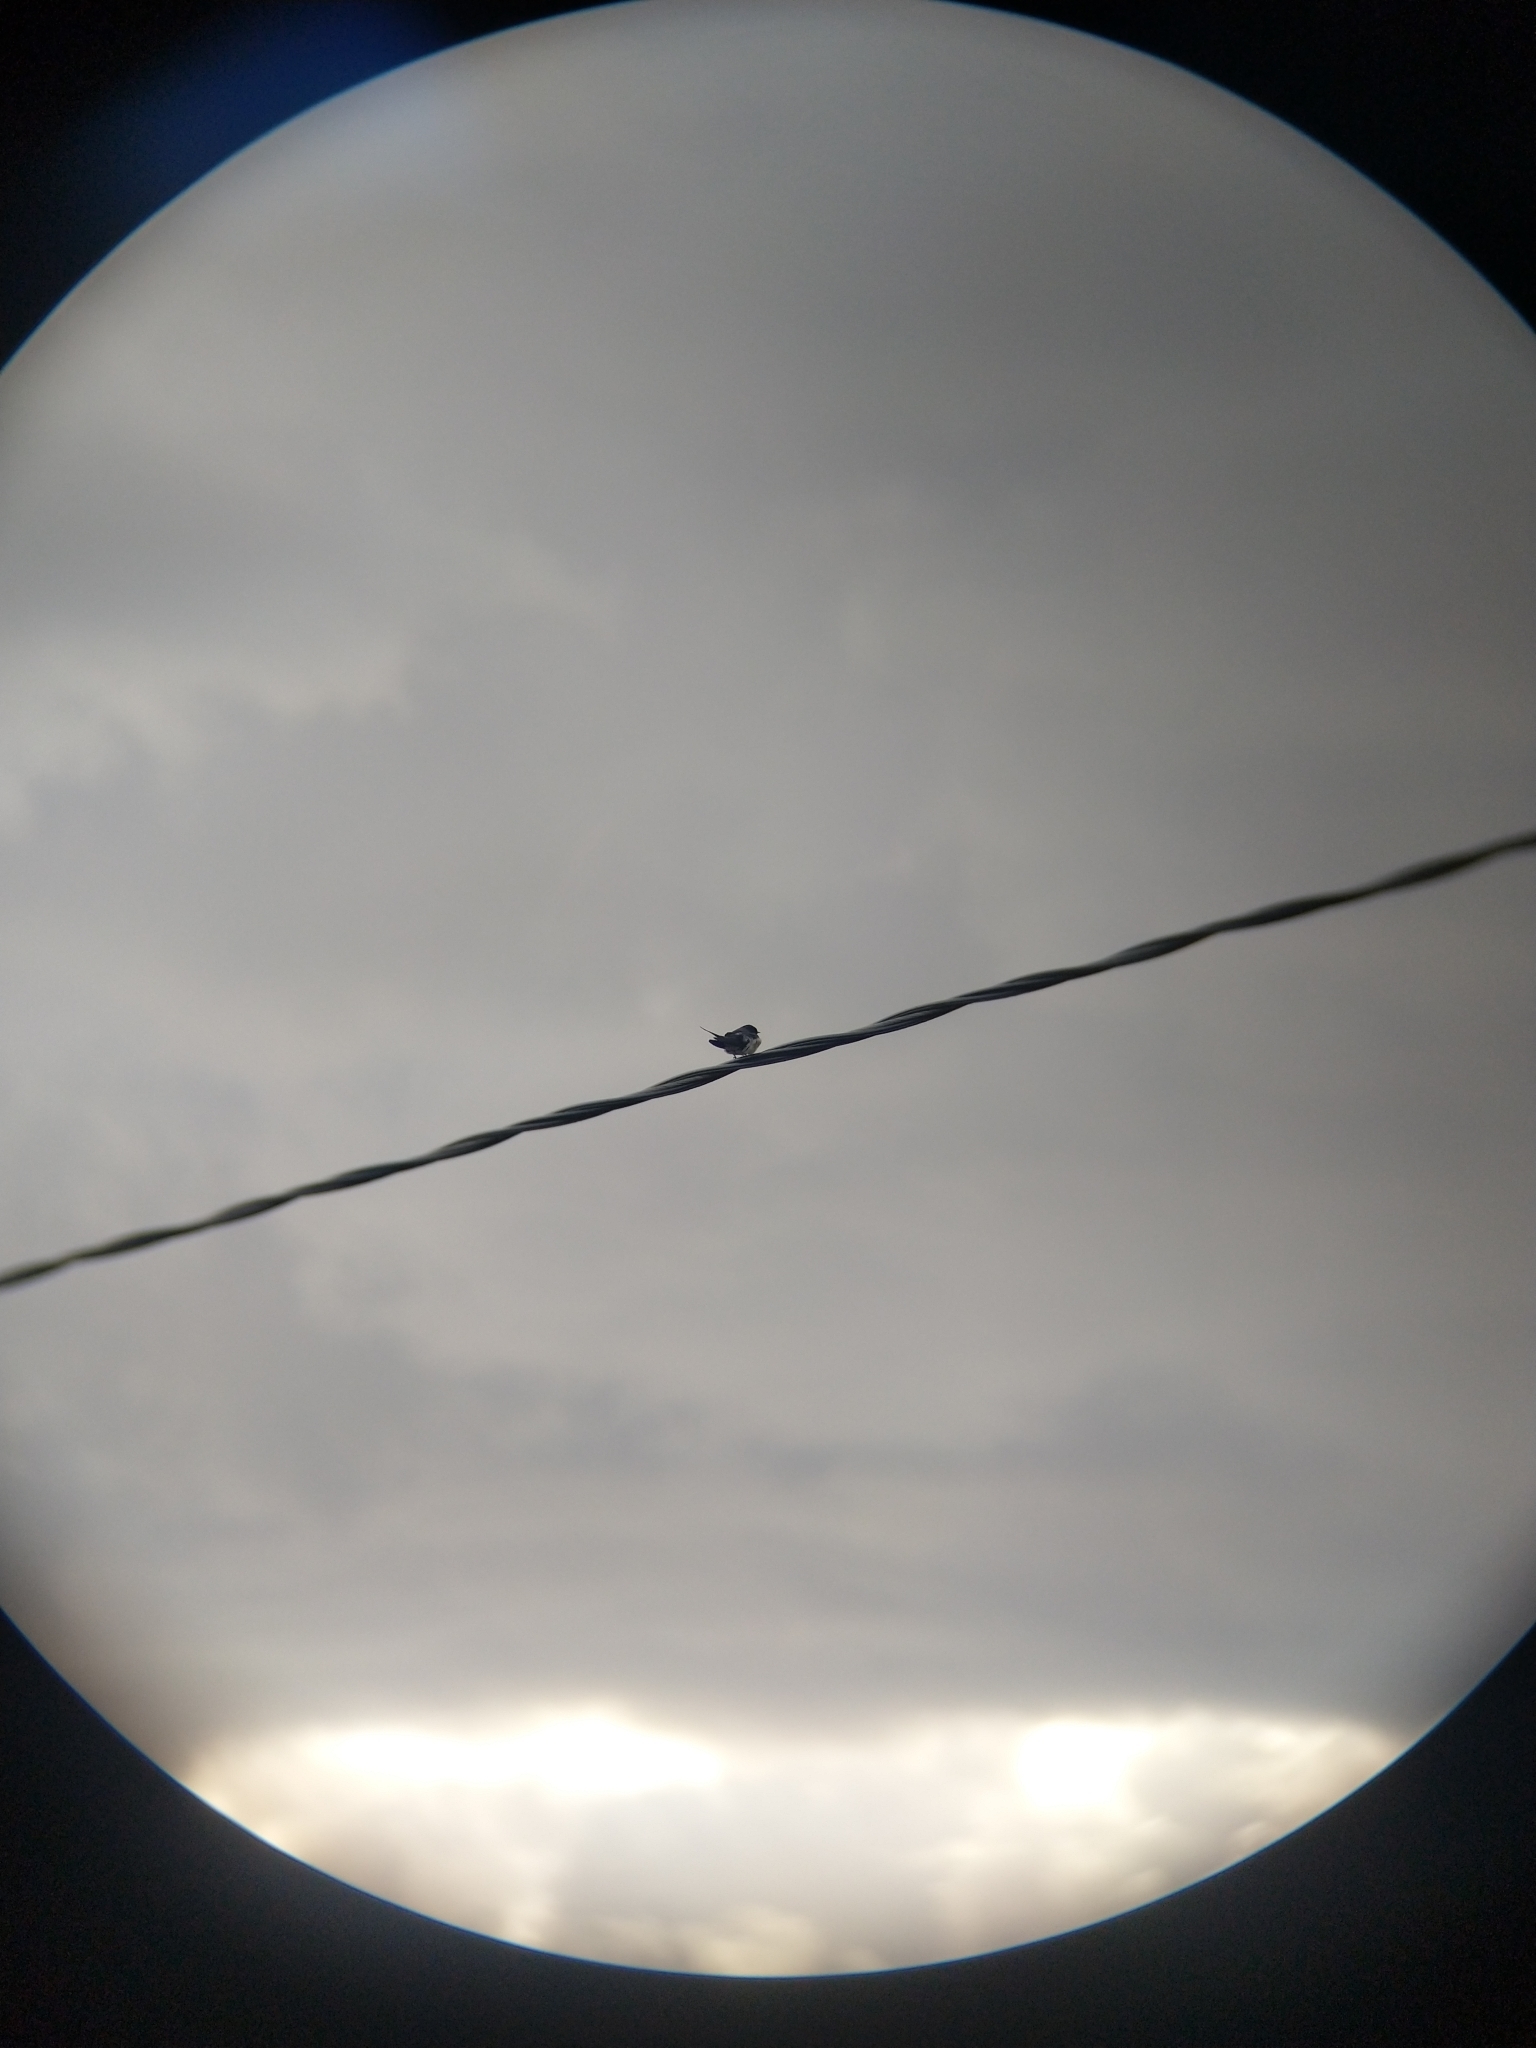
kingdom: Animalia
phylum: Chordata
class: Aves
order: Passeriformes
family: Hirundinidae
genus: Hirundo
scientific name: Hirundo rustica
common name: Barn swallow
